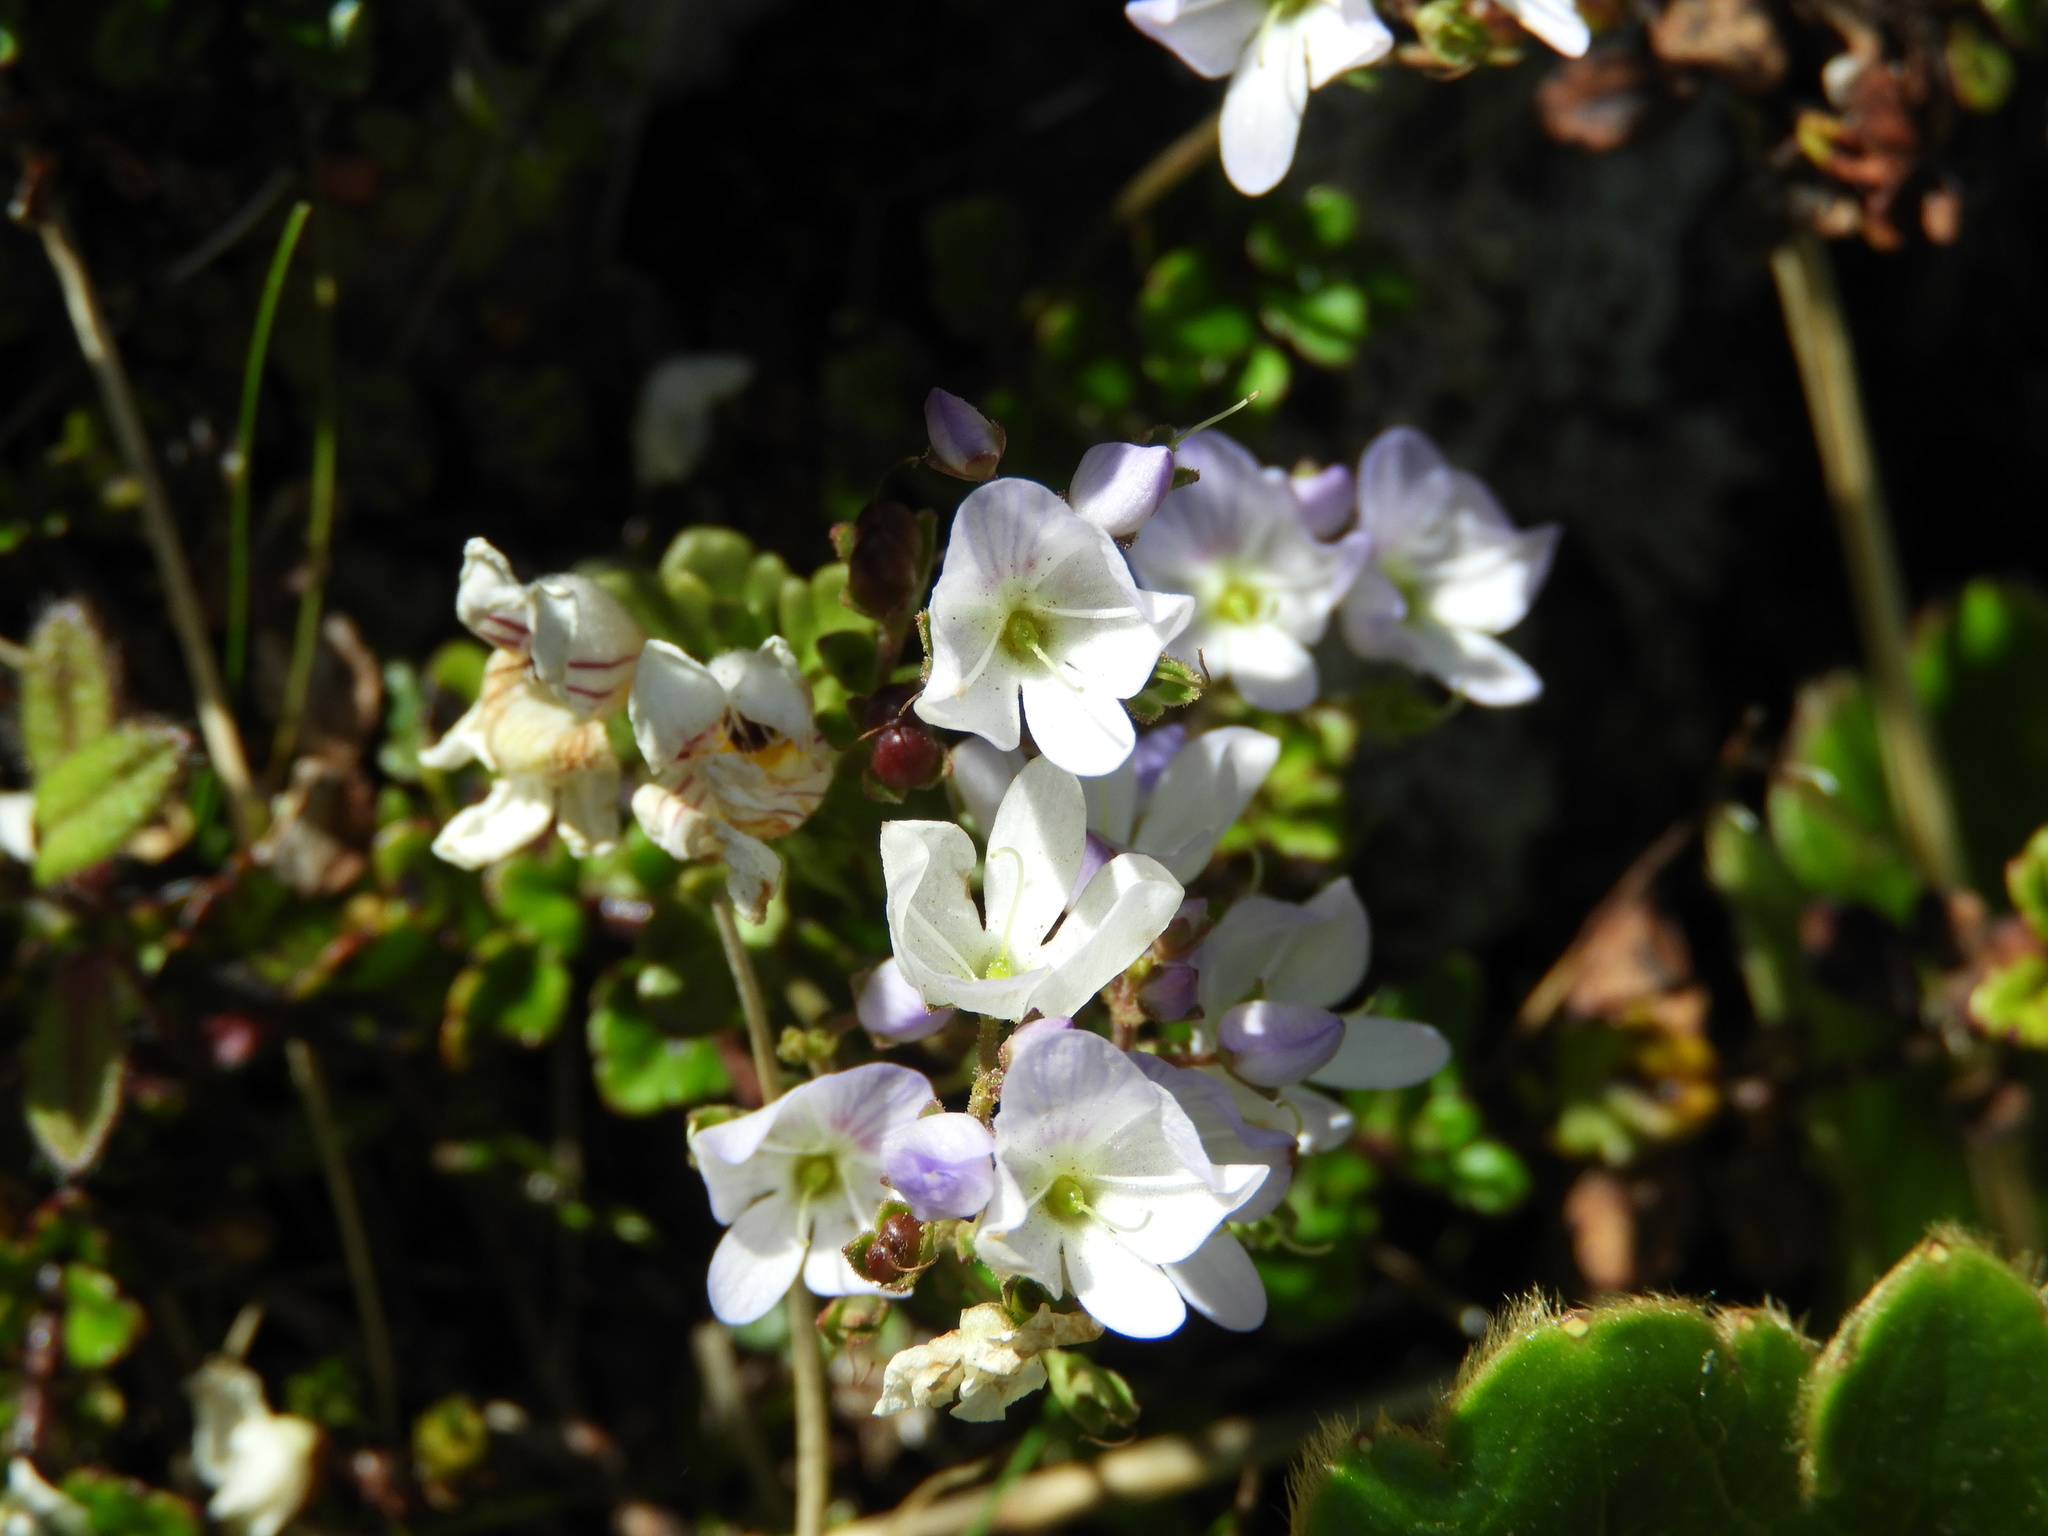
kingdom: Plantae
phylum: Tracheophyta
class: Magnoliopsida
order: Lamiales
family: Plantaginaceae
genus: Veronica
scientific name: Veronica hookeriana
